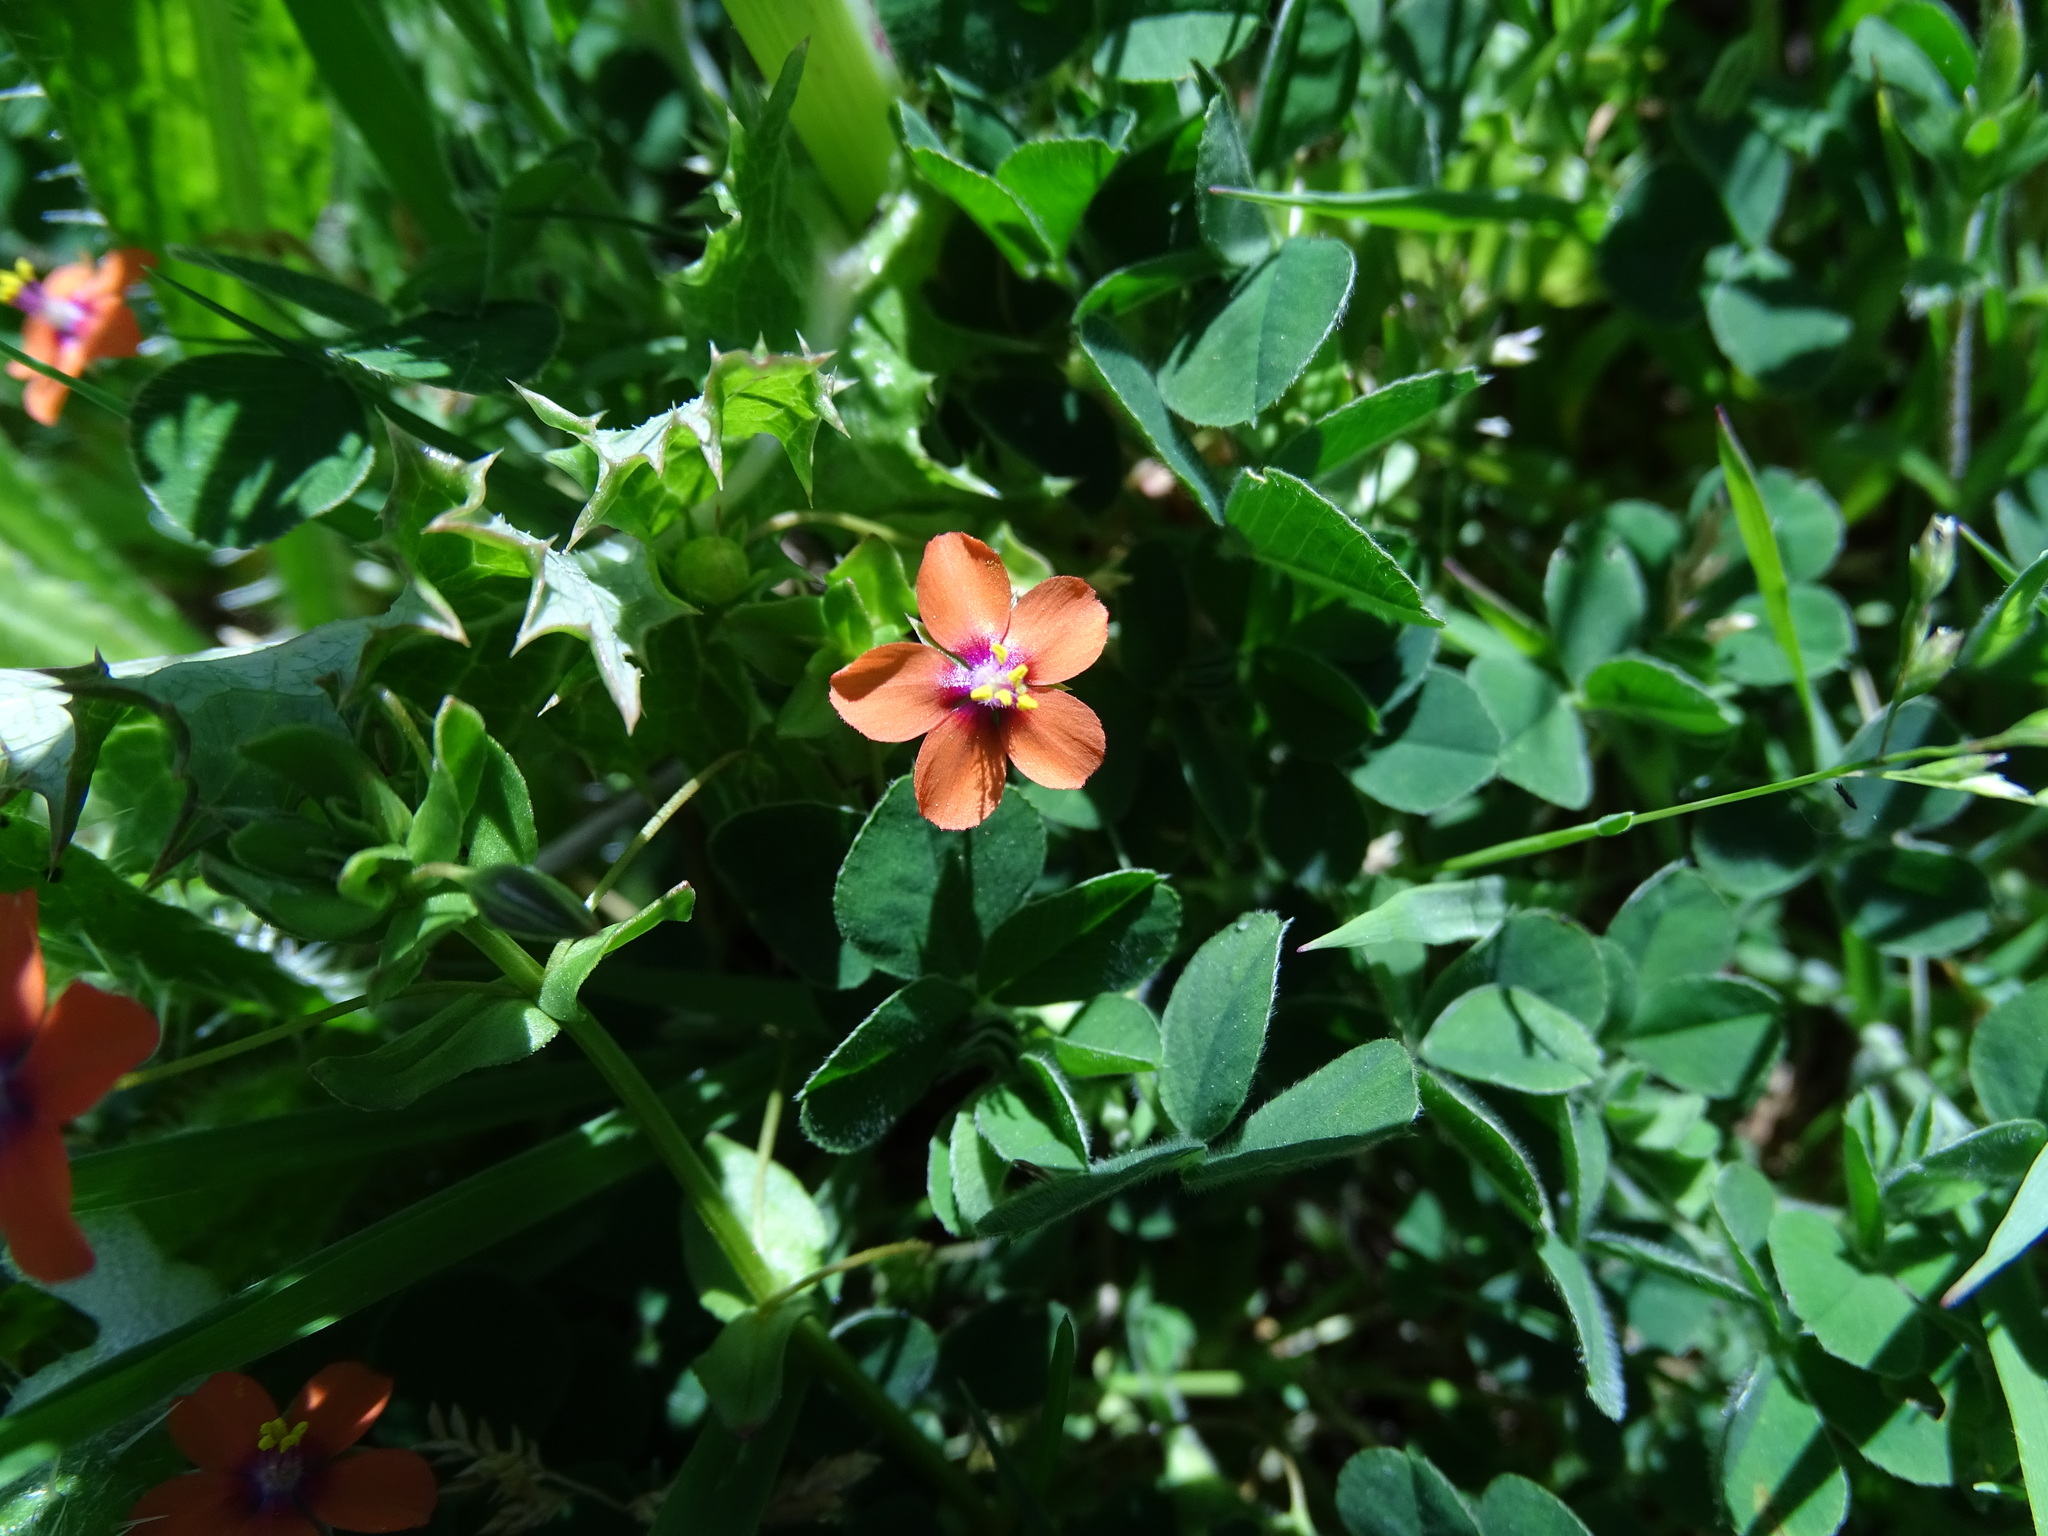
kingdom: Plantae
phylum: Tracheophyta
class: Magnoliopsida
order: Ericales
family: Primulaceae
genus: Lysimachia
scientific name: Lysimachia arvensis
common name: Scarlet pimpernel
